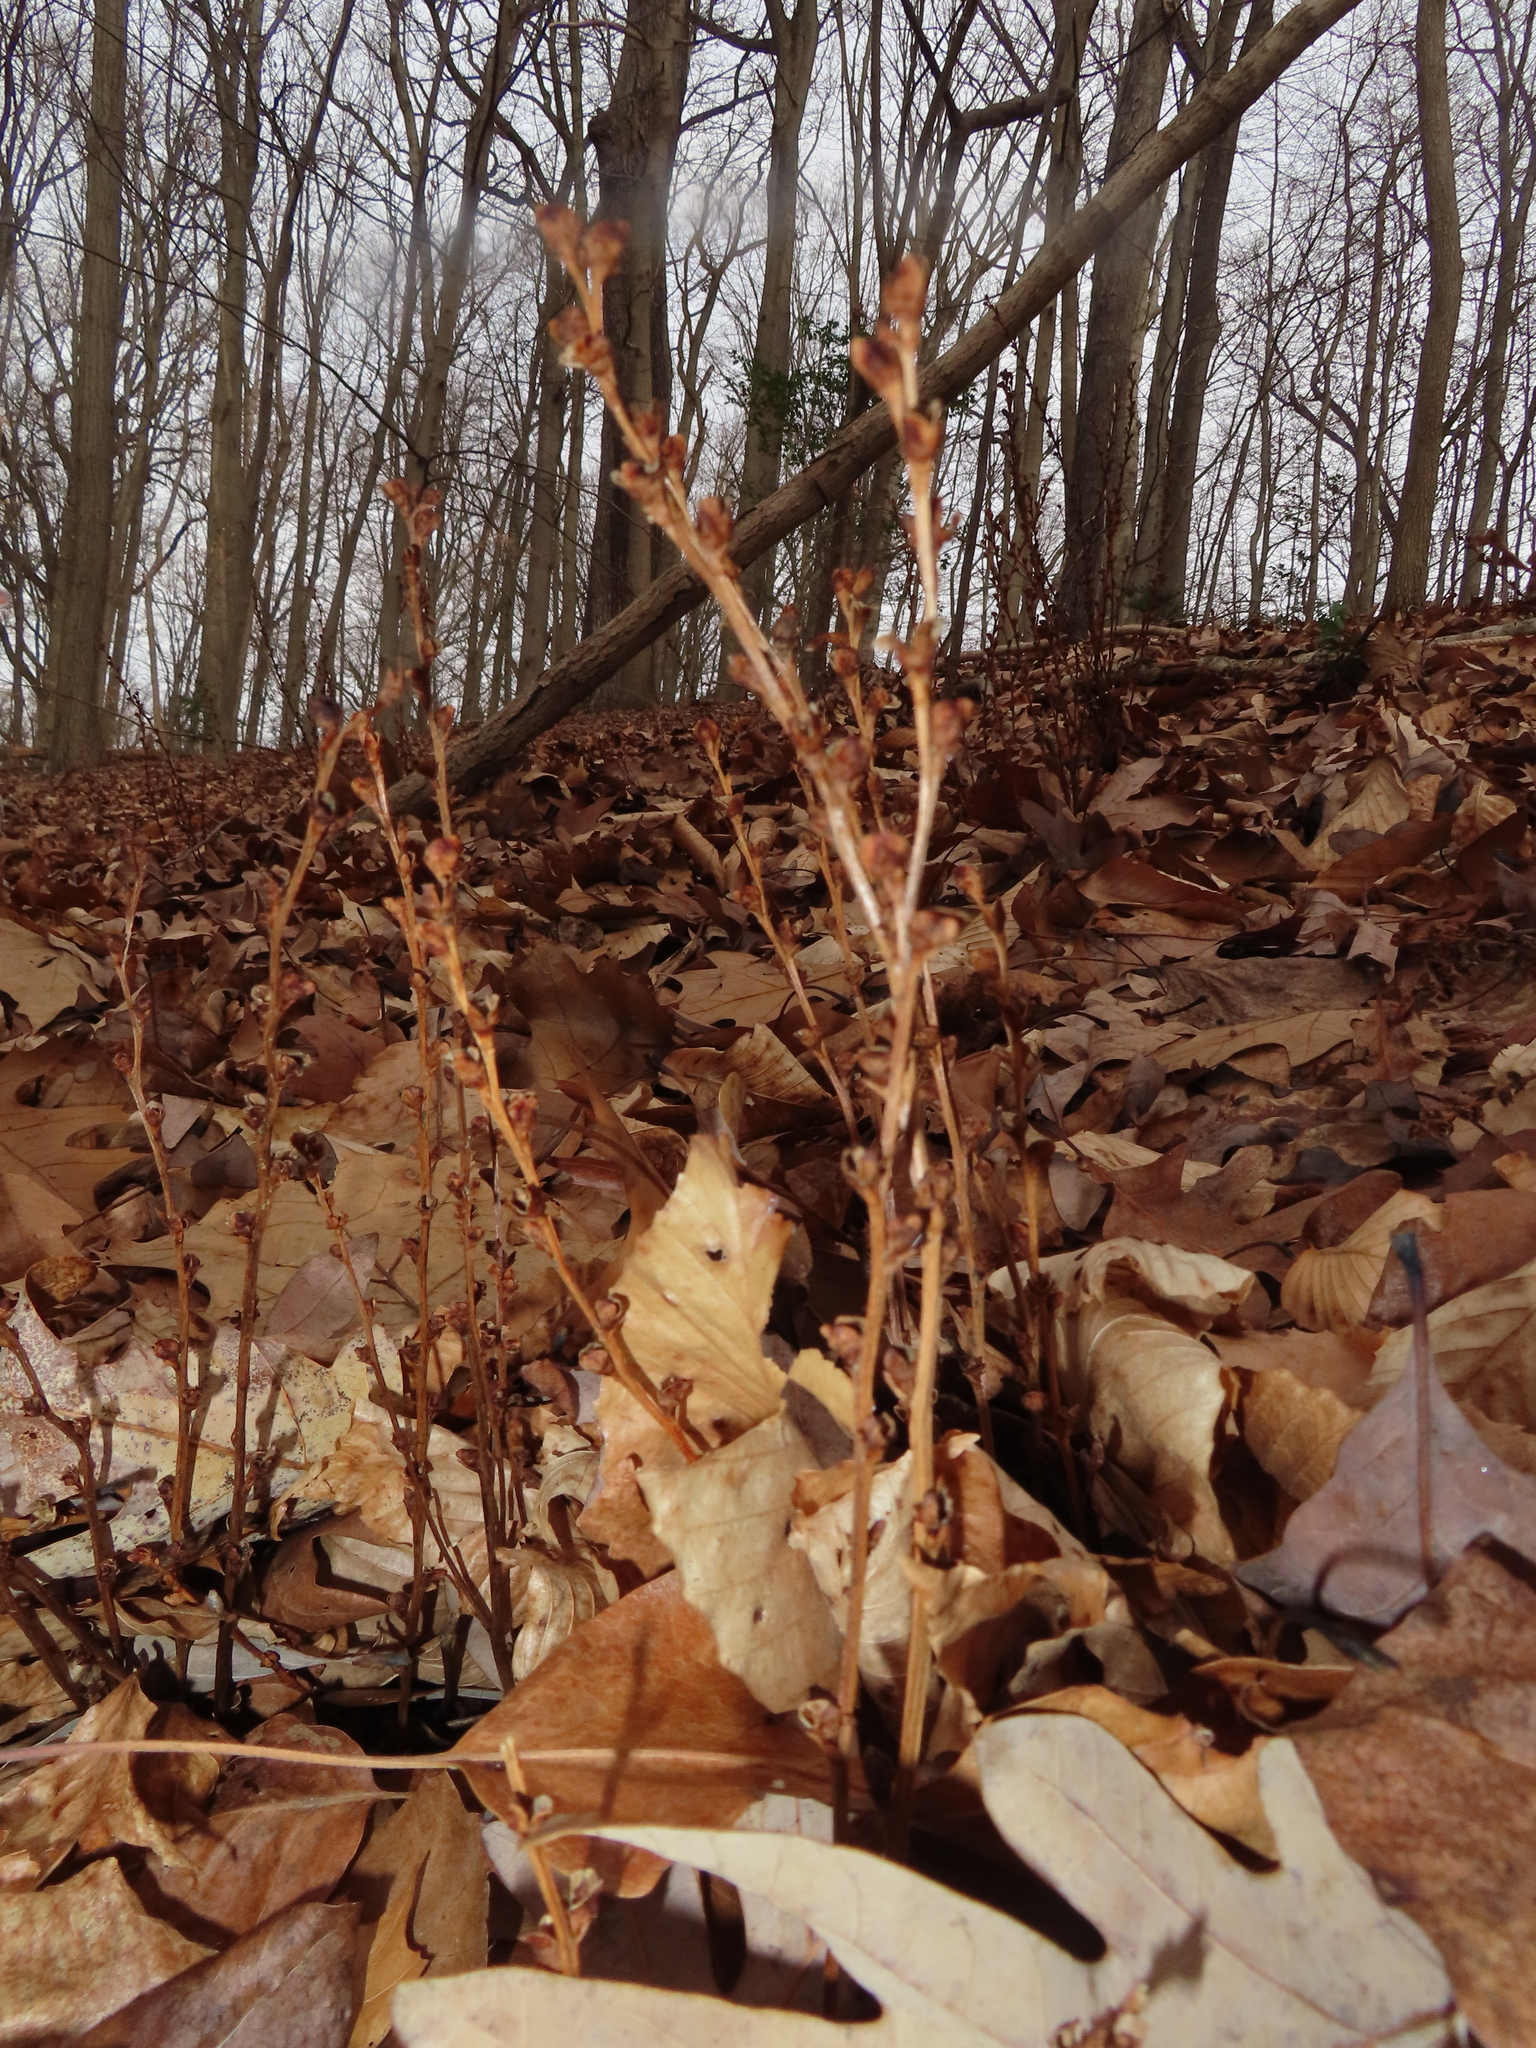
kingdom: Plantae
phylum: Tracheophyta
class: Magnoliopsida
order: Lamiales
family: Orobanchaceae
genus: Epifagus
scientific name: Epifagus virginiana
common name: Beechdrops
